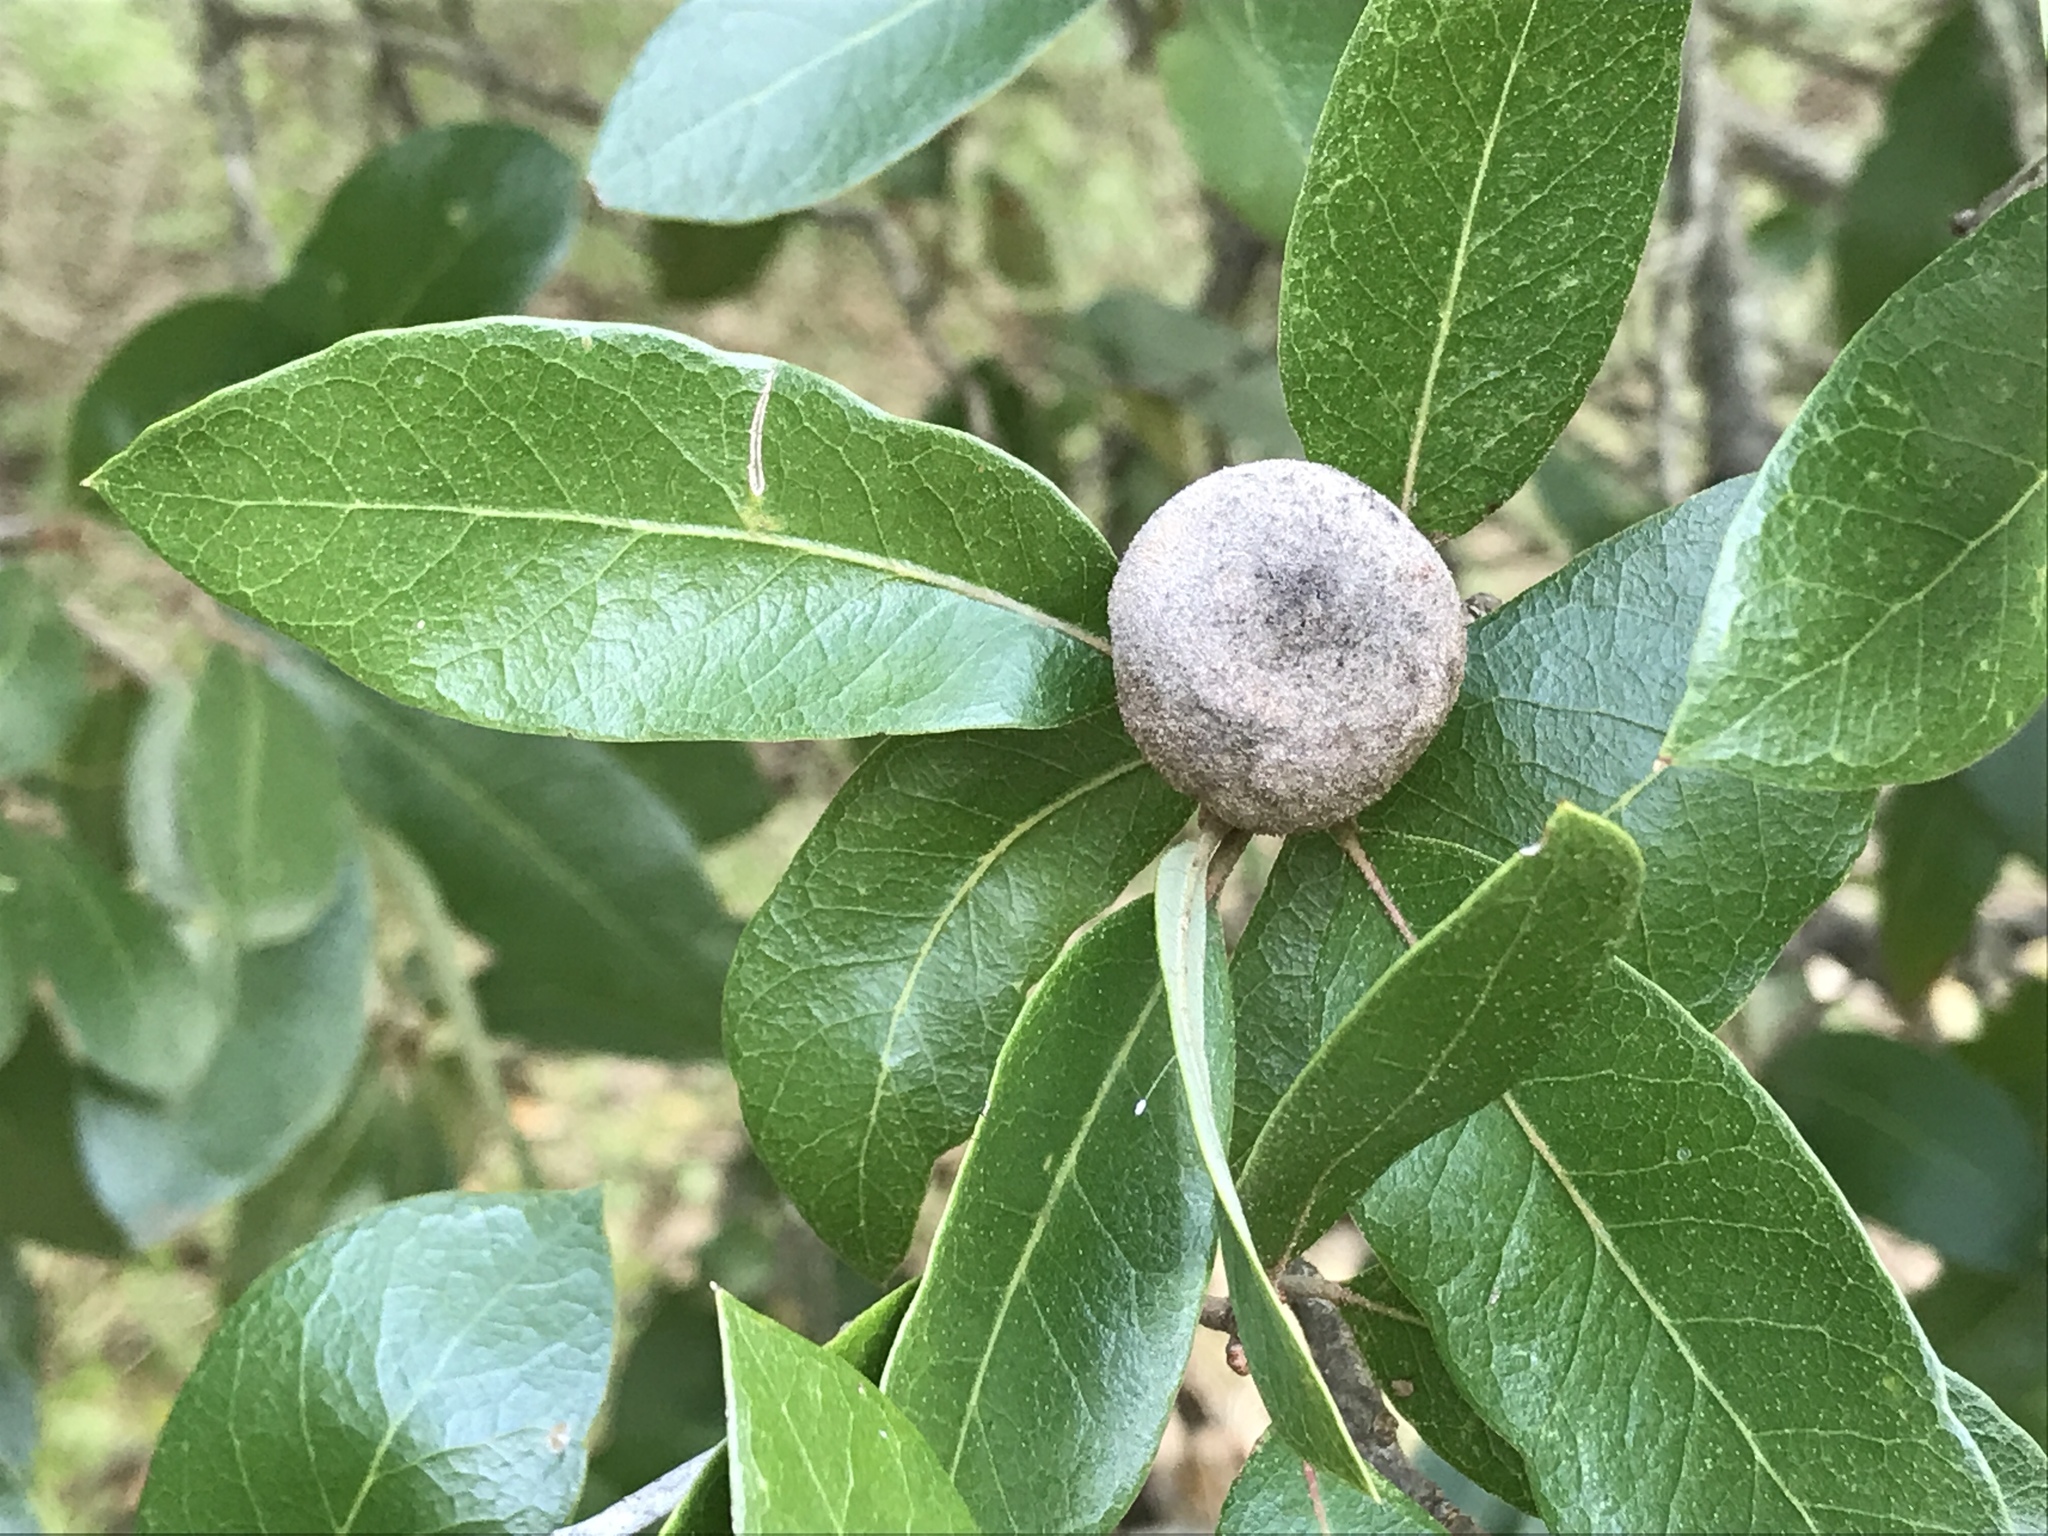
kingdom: Animalia
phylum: Arthropoda
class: Insecta
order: Hymenoptera
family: Cynipidae
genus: Disholcaspis
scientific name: Disholcaspis
